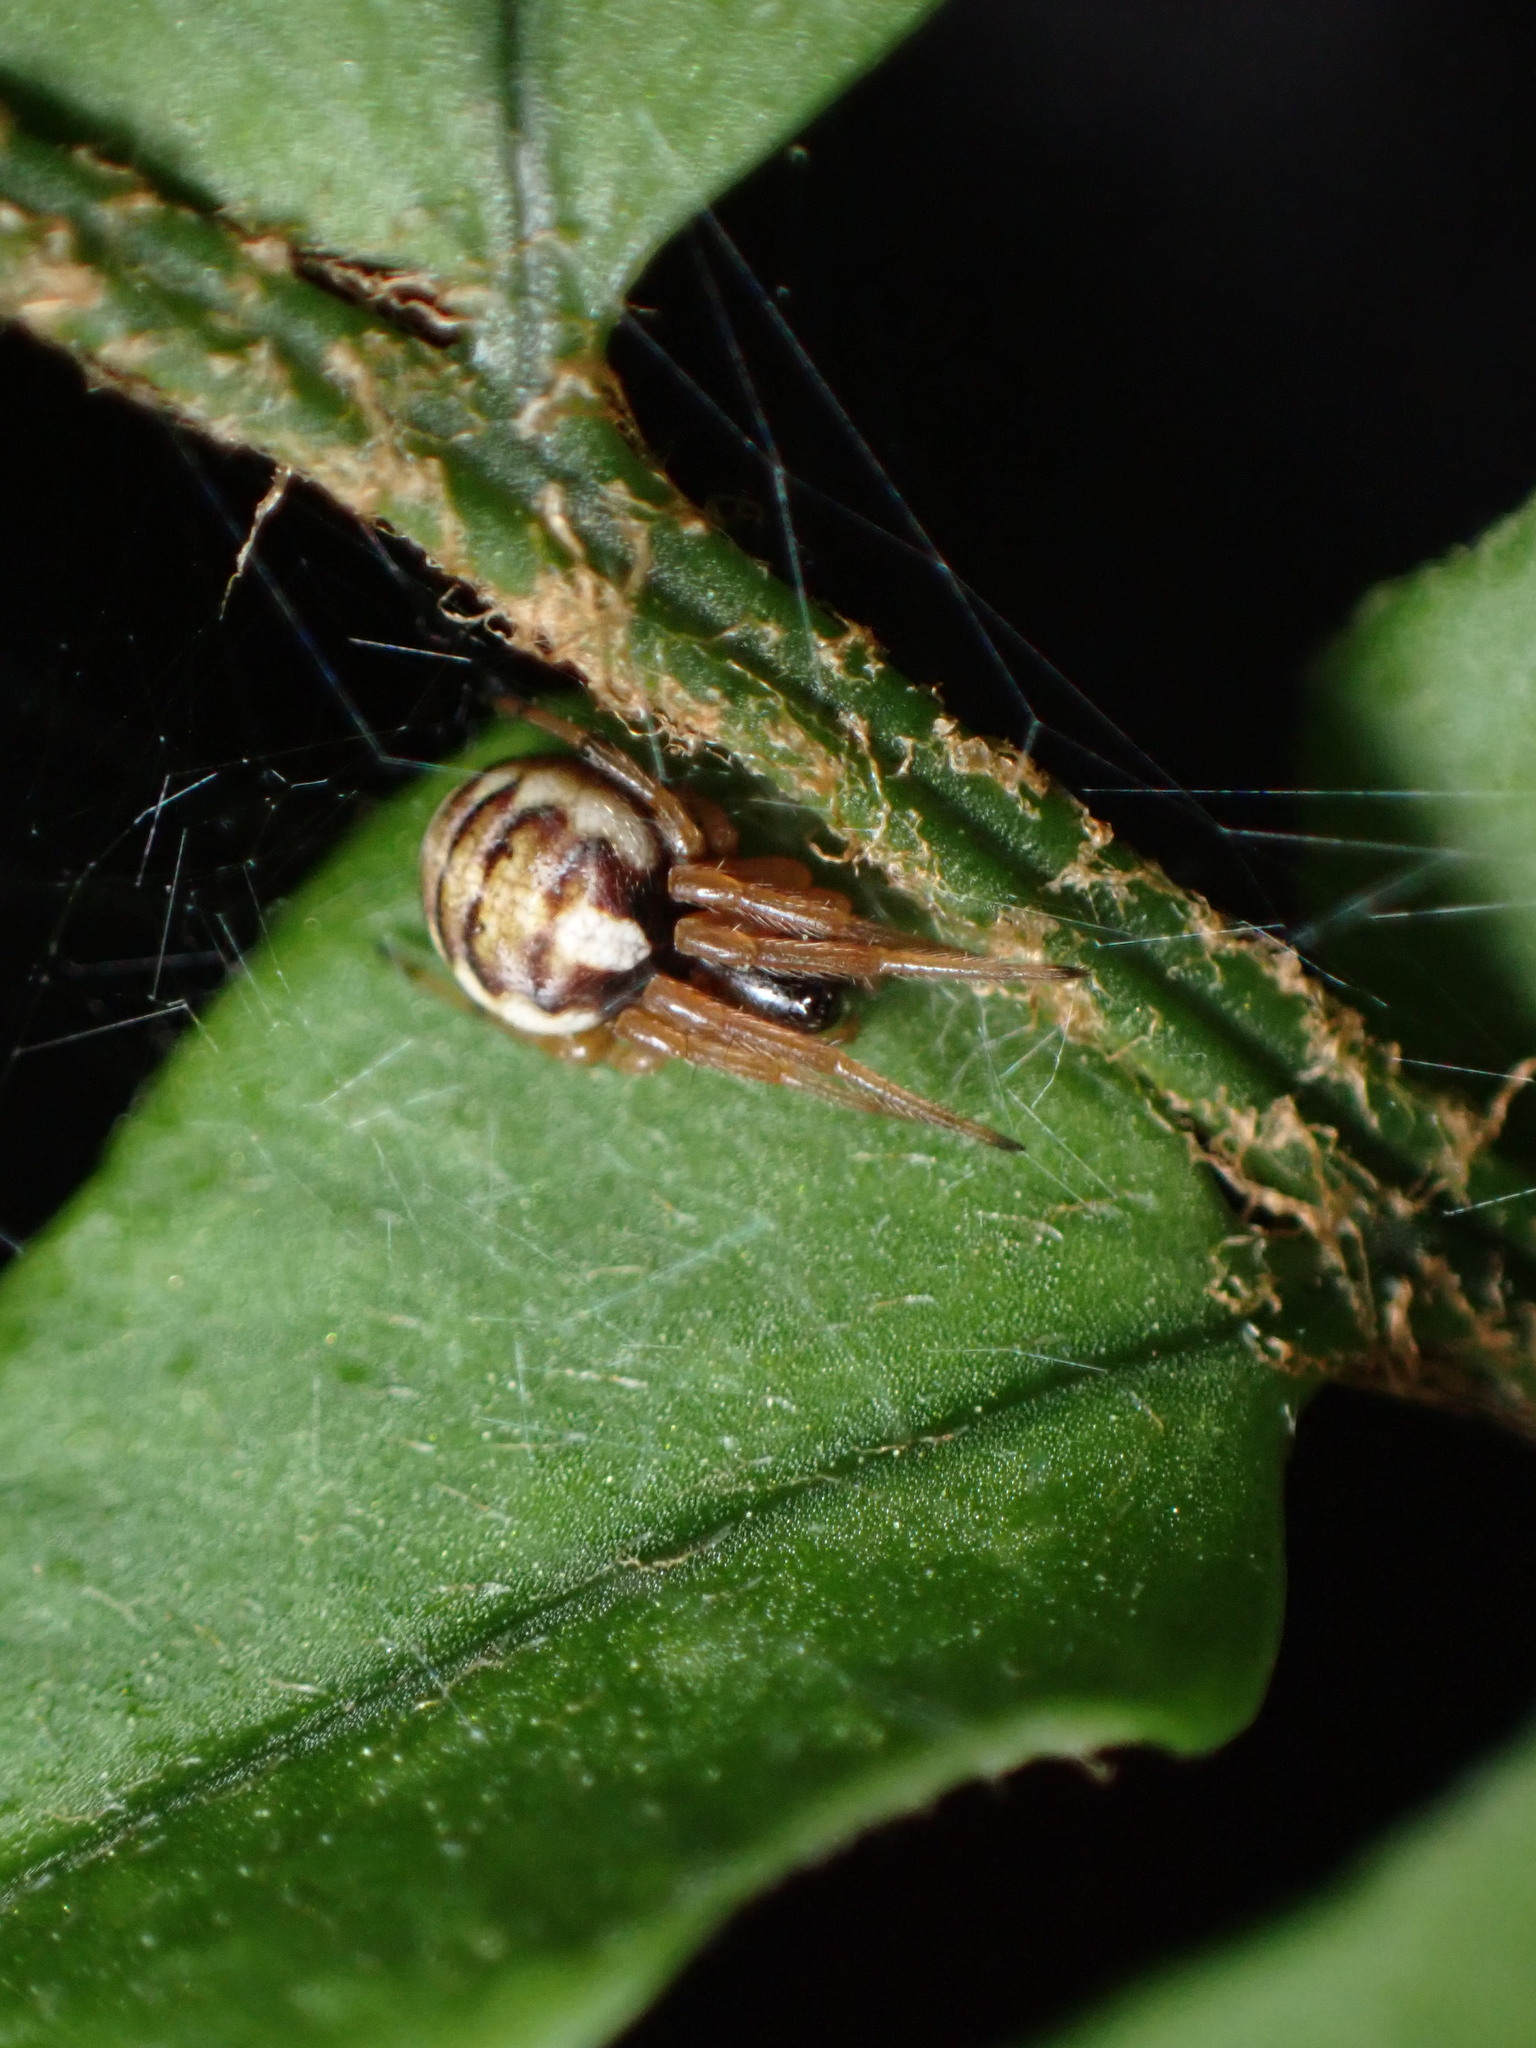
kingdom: Animalia
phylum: Arthropoda
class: Arachnida
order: Araneae
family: Araneidae
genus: Araneus
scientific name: Araneus ejusmodi
